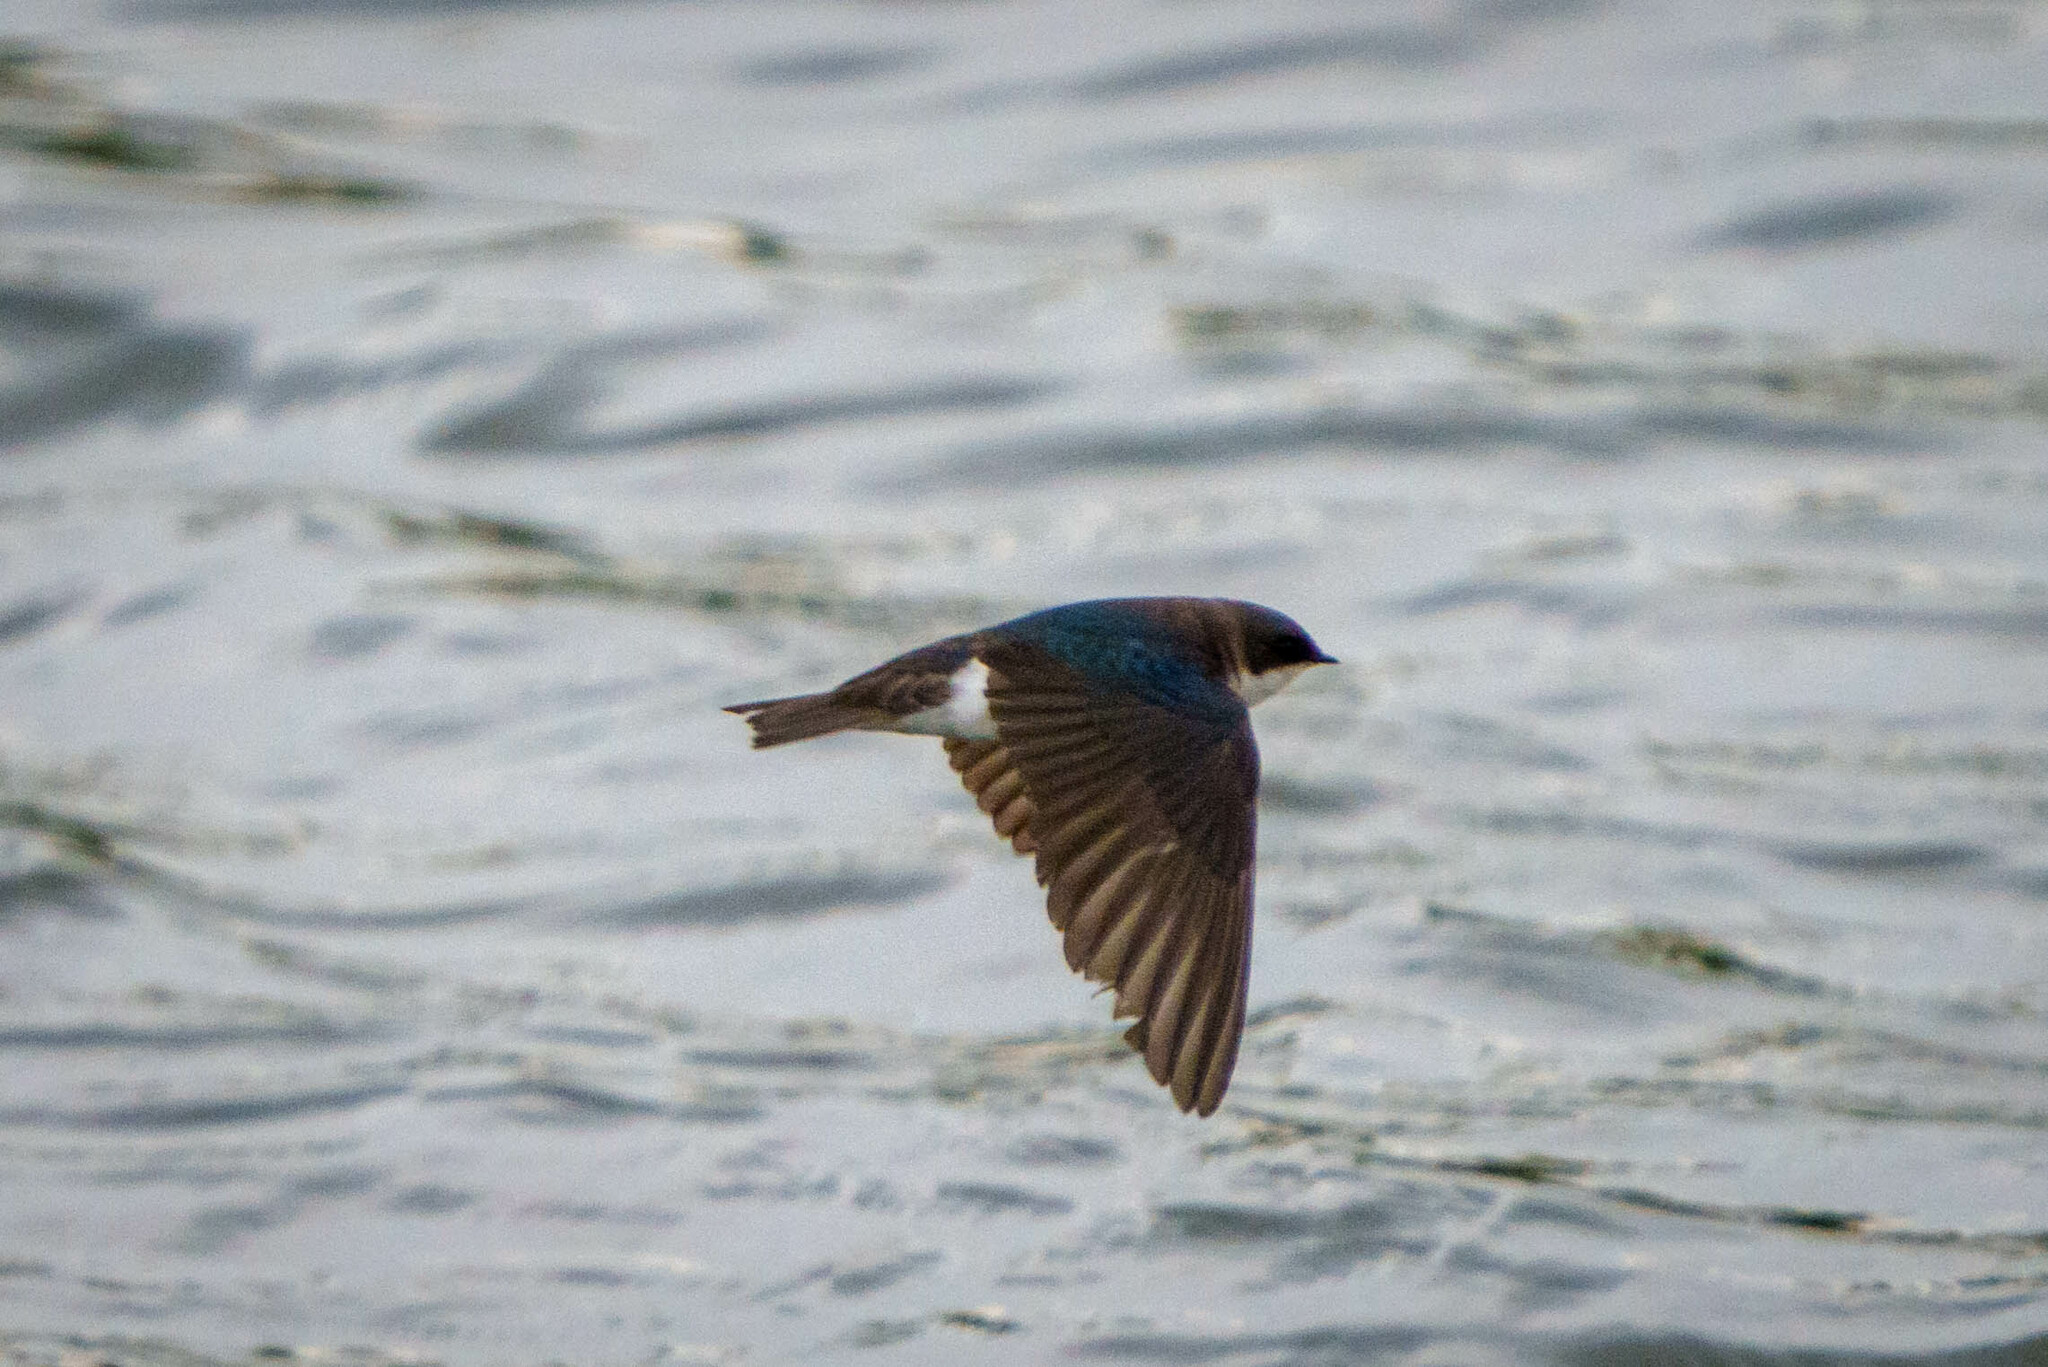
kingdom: Animalia
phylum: Chordata
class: Aves
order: Passeriformes
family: Hirundinidae
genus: Tachycineta
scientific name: Tachycineta bicolor
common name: Tree swallow
